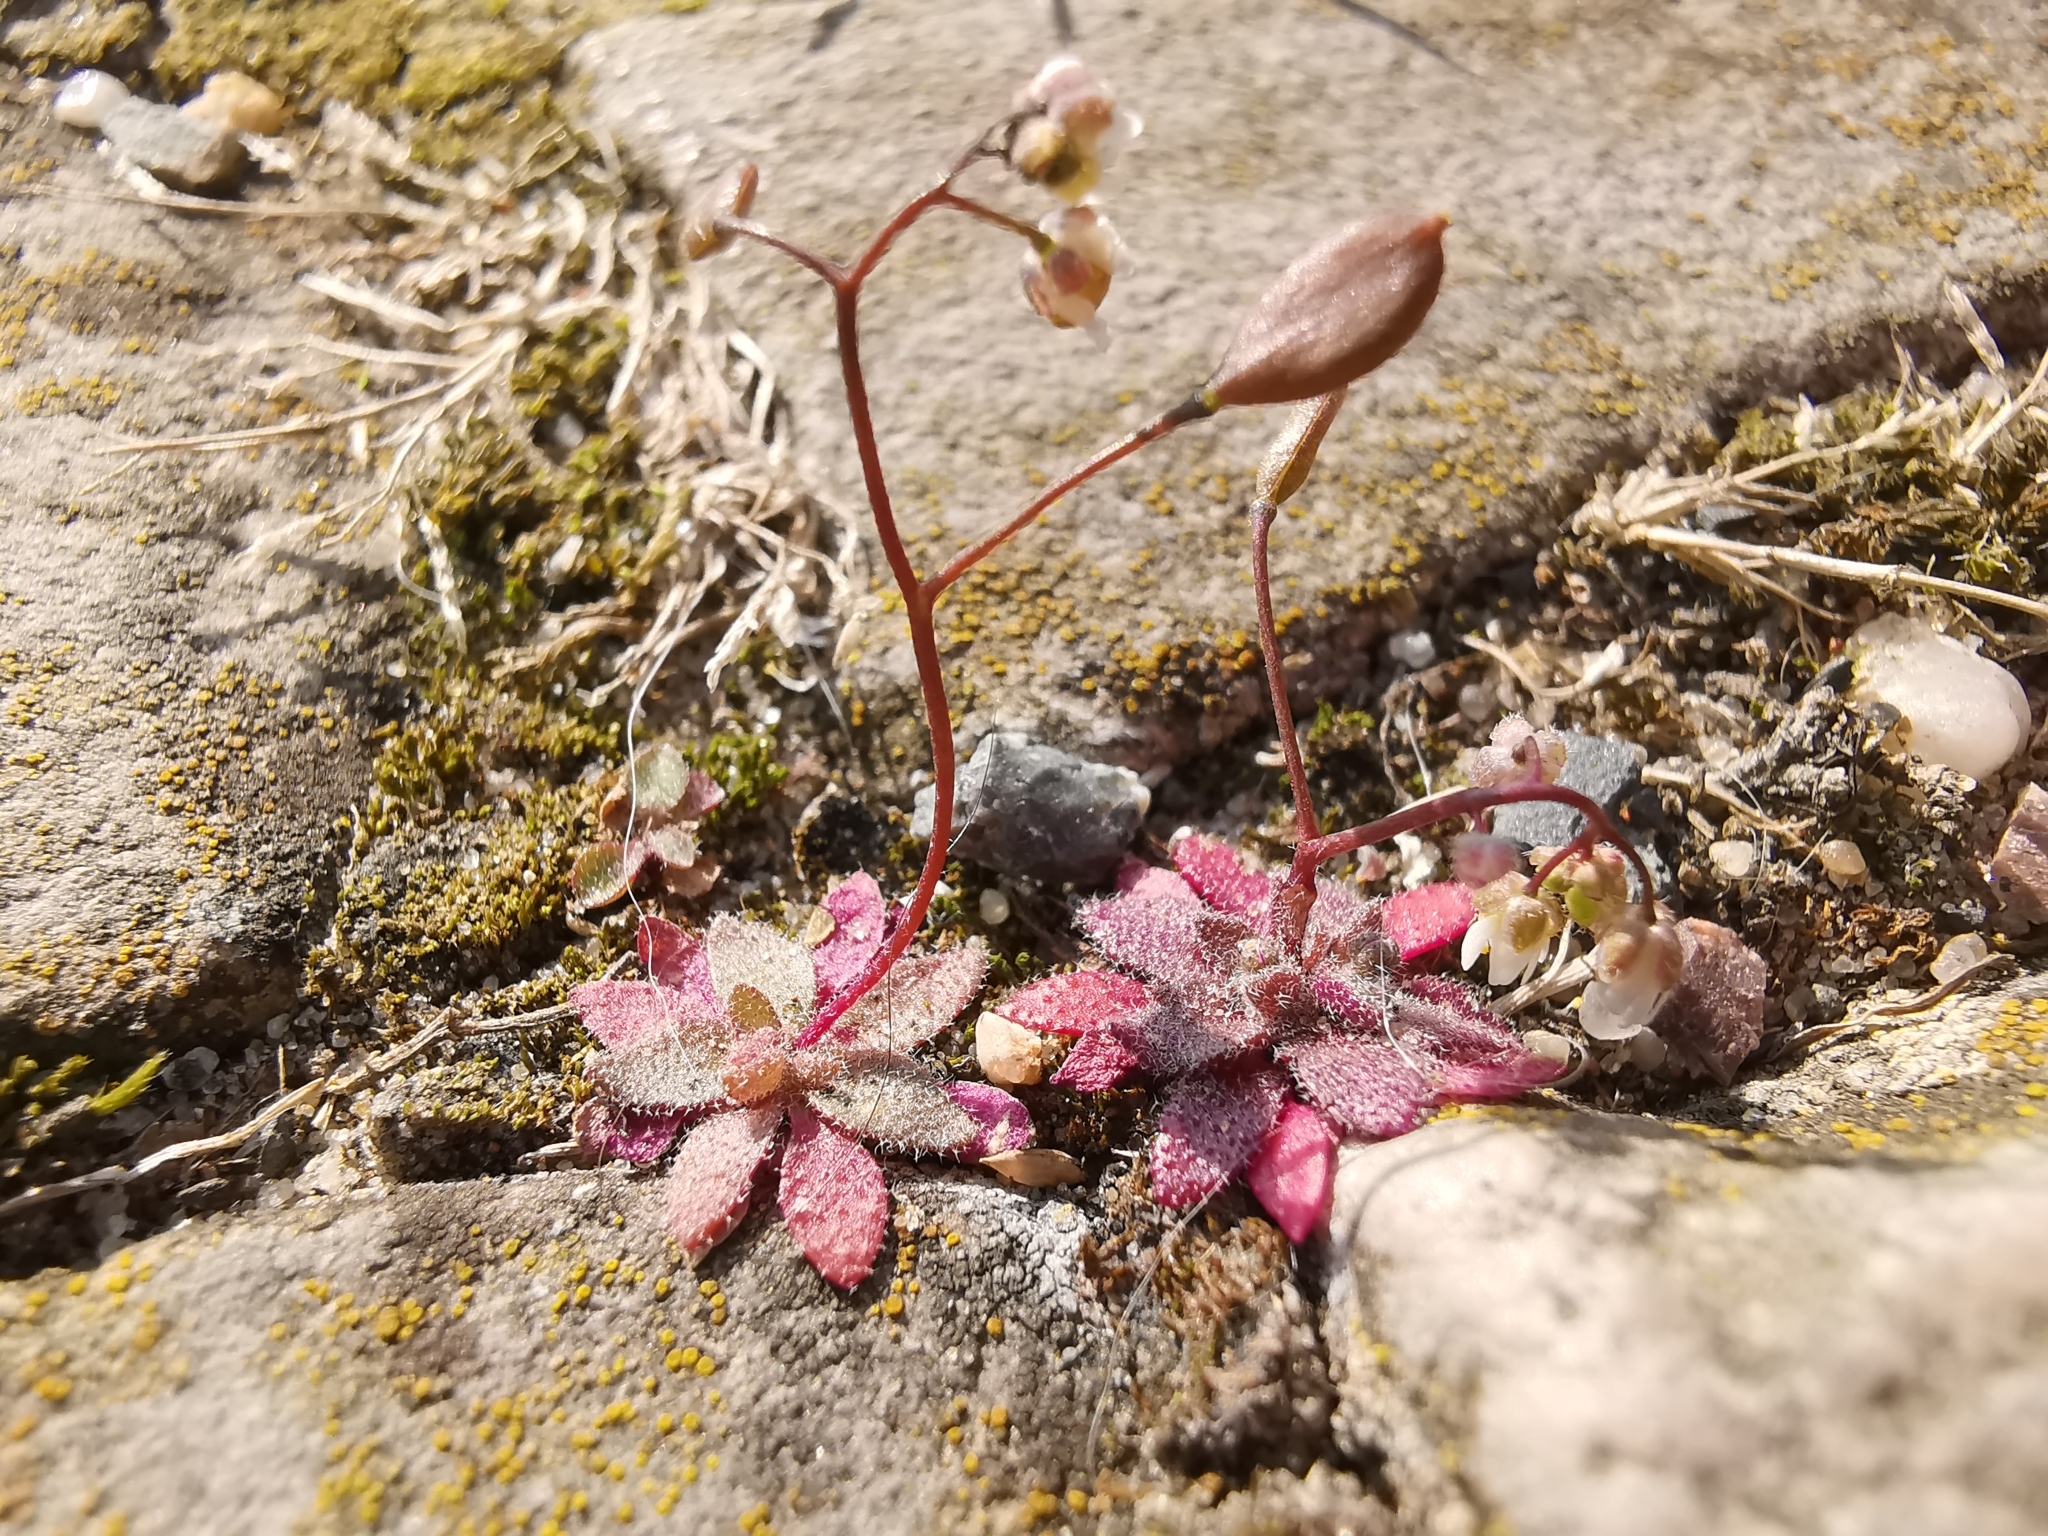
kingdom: Plantae
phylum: Tracheophyta
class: Magnoliopsida
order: Brassicales
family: Brassicaceae
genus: Draba
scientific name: Draba verna
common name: Spring draba
